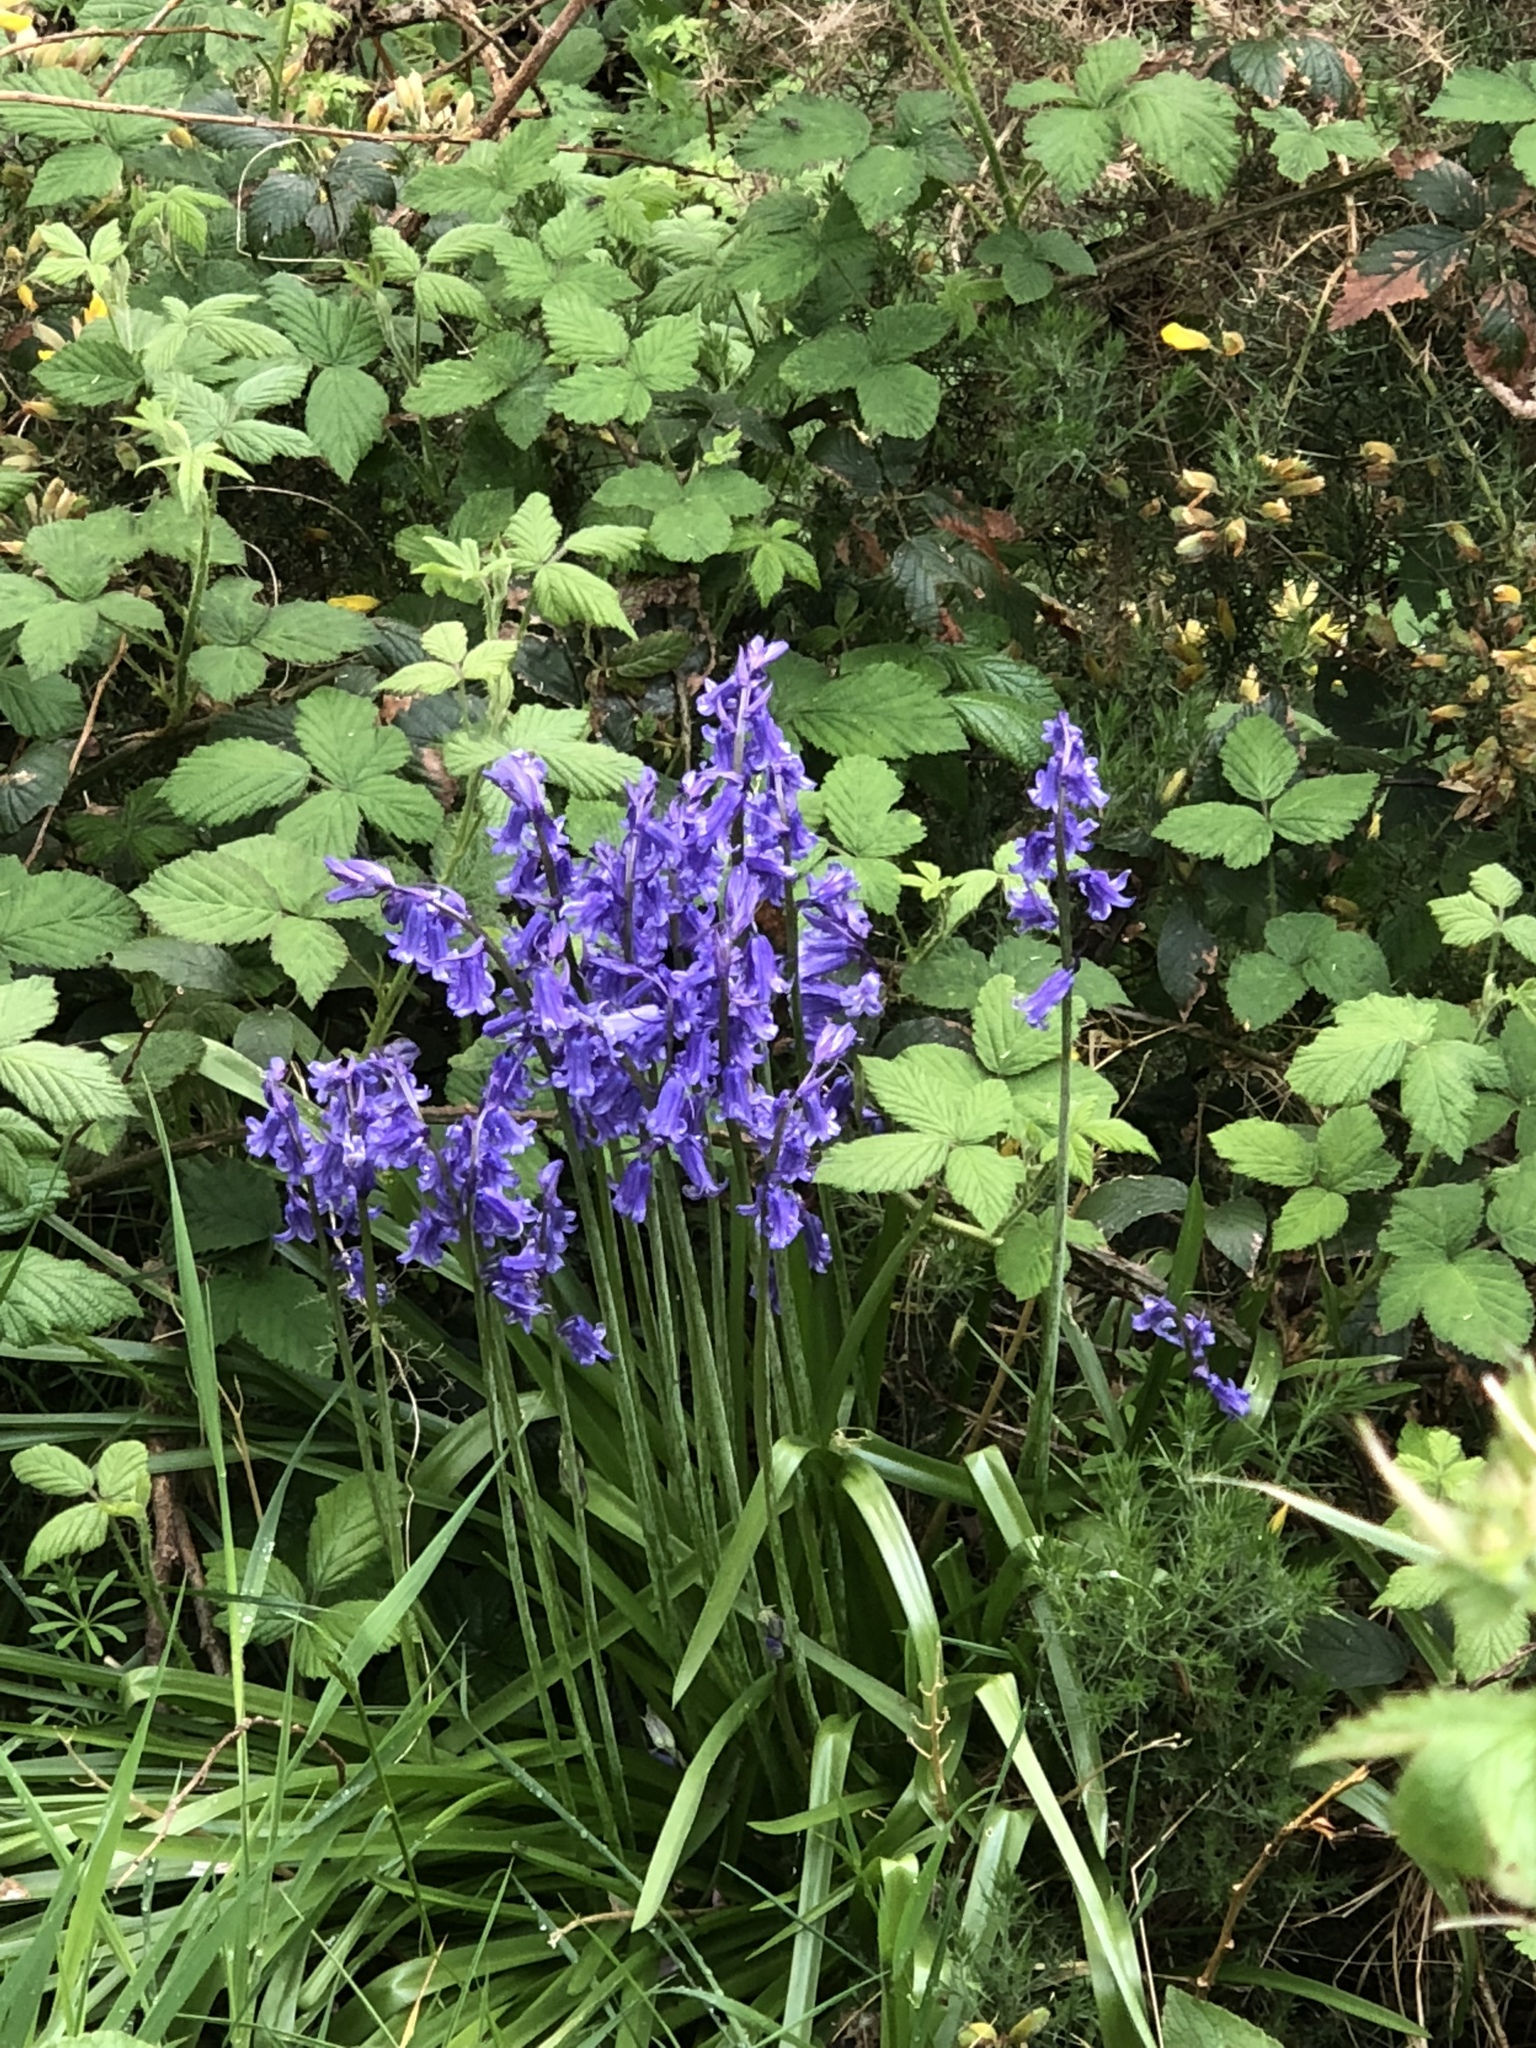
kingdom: Plantae
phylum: Tracheophyta
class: Liliopsida
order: Asparagales
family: Asparagaceae
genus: Hyacinthoides
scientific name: Hyacinthoides non-scripta
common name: Bluebell
